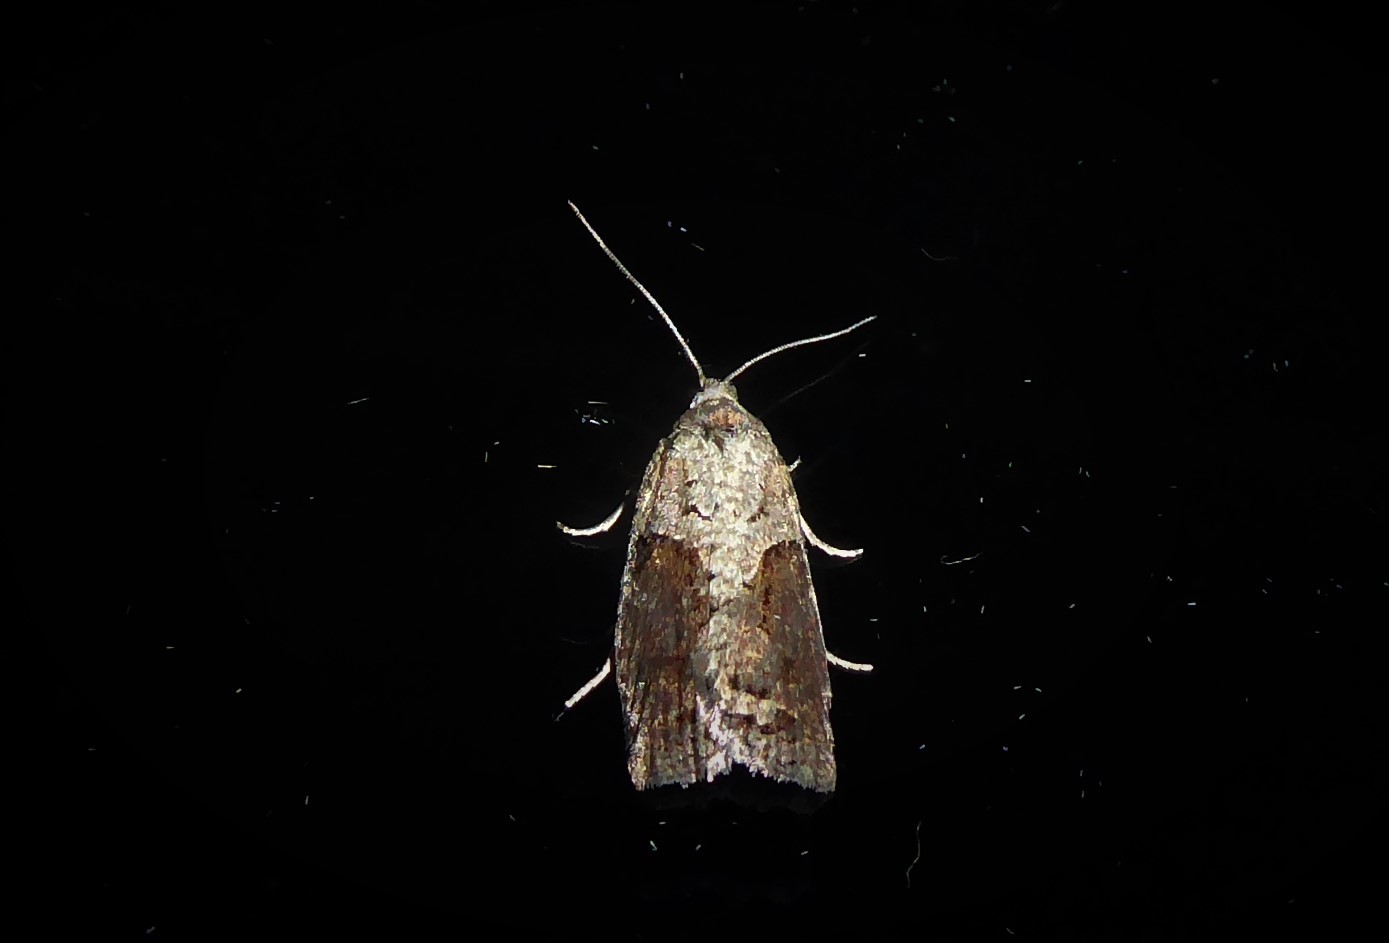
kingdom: Animalia
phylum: Arthropoda
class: Insecta
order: Lepidoptera
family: Tortricidae
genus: Harmologa
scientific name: Harmologa oblongana
